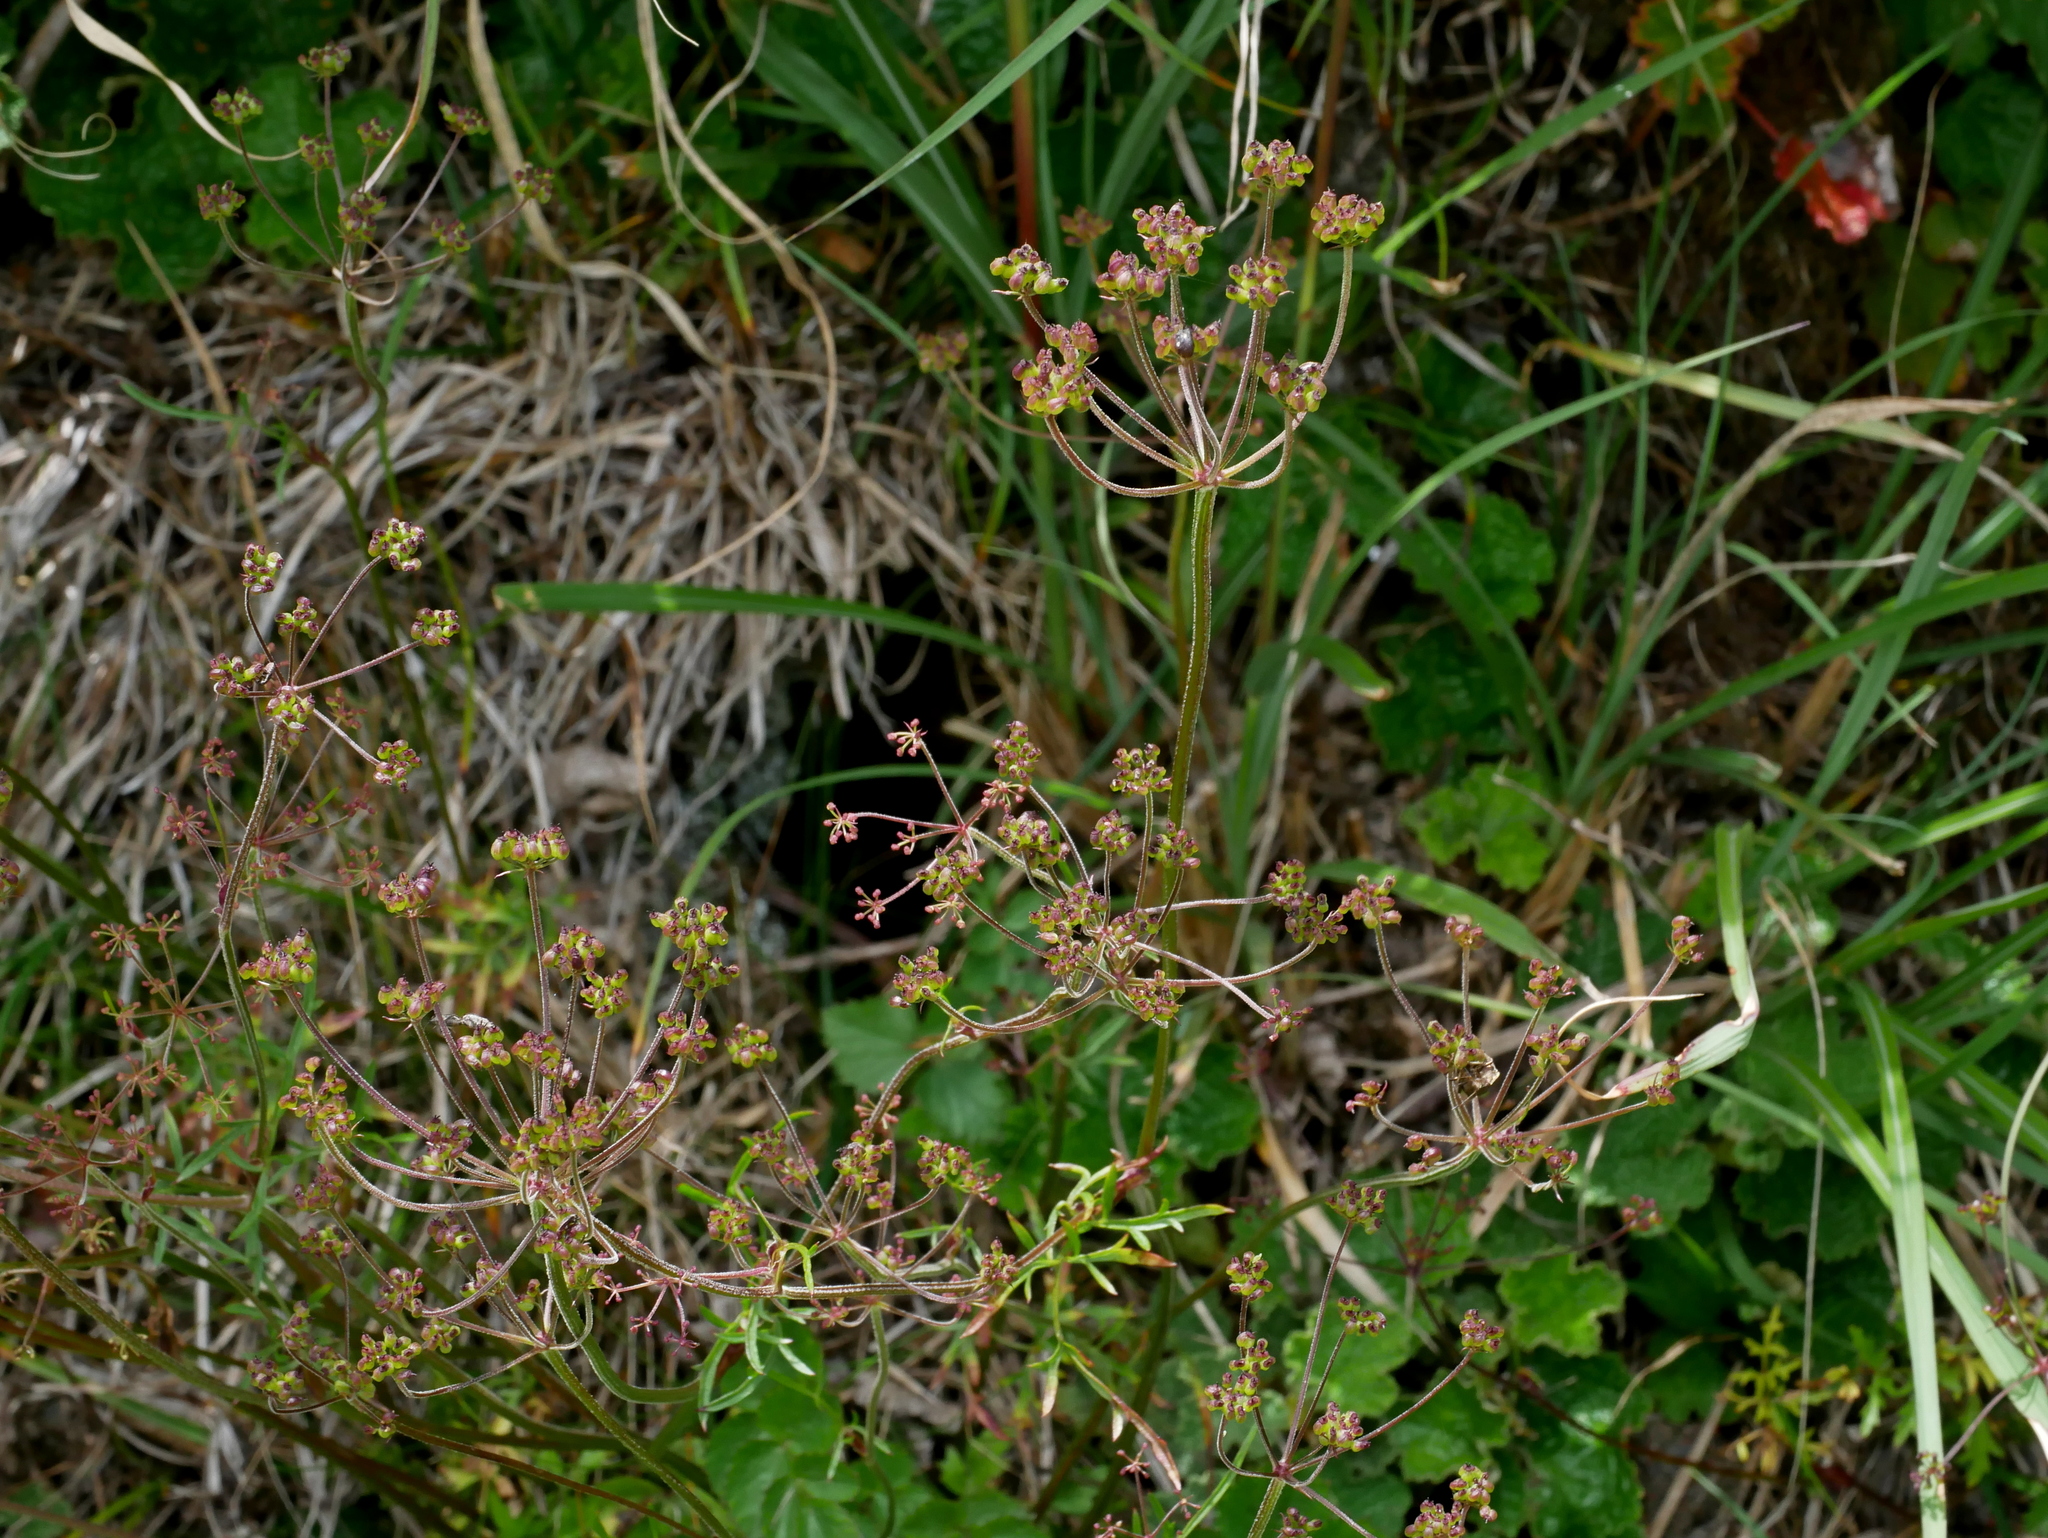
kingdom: Plantae
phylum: Tracheophyta
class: Magnoliopsida
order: Apiales
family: Apiaceae
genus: Pimpinella
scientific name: Pimpinella niitakayamensis
